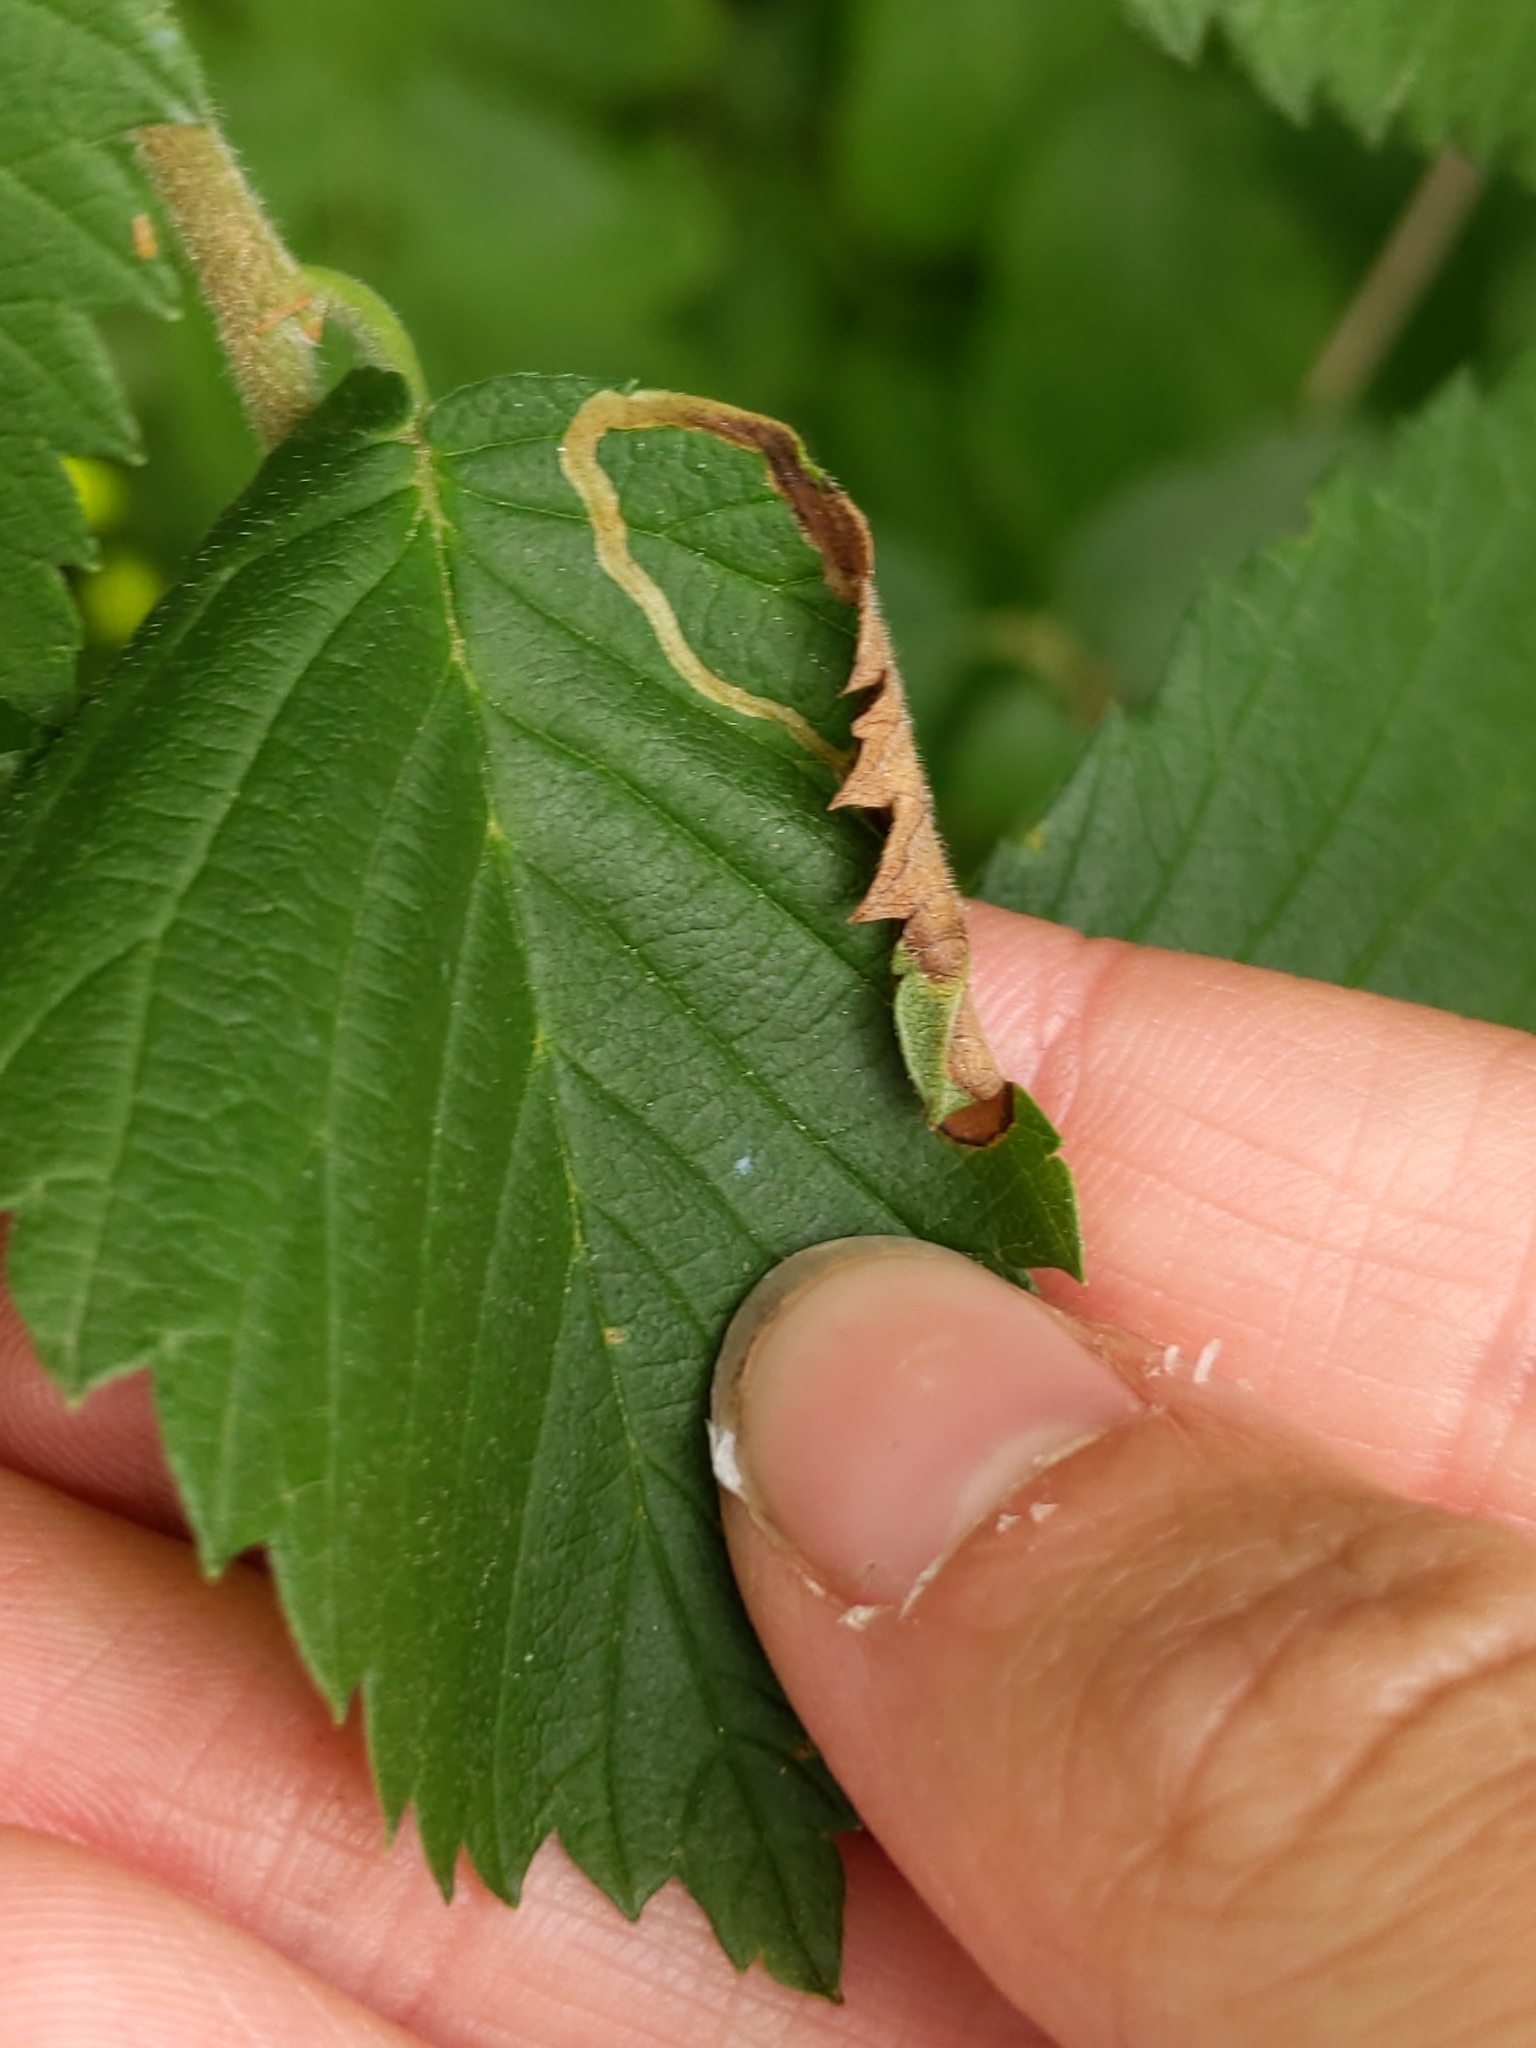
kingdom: Animalia
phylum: Arthropoda
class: Insecta
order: Diptera
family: Agromyzidae
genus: Agromyza
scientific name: Agromyza aristata
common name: Elm agromyzid leafminer
